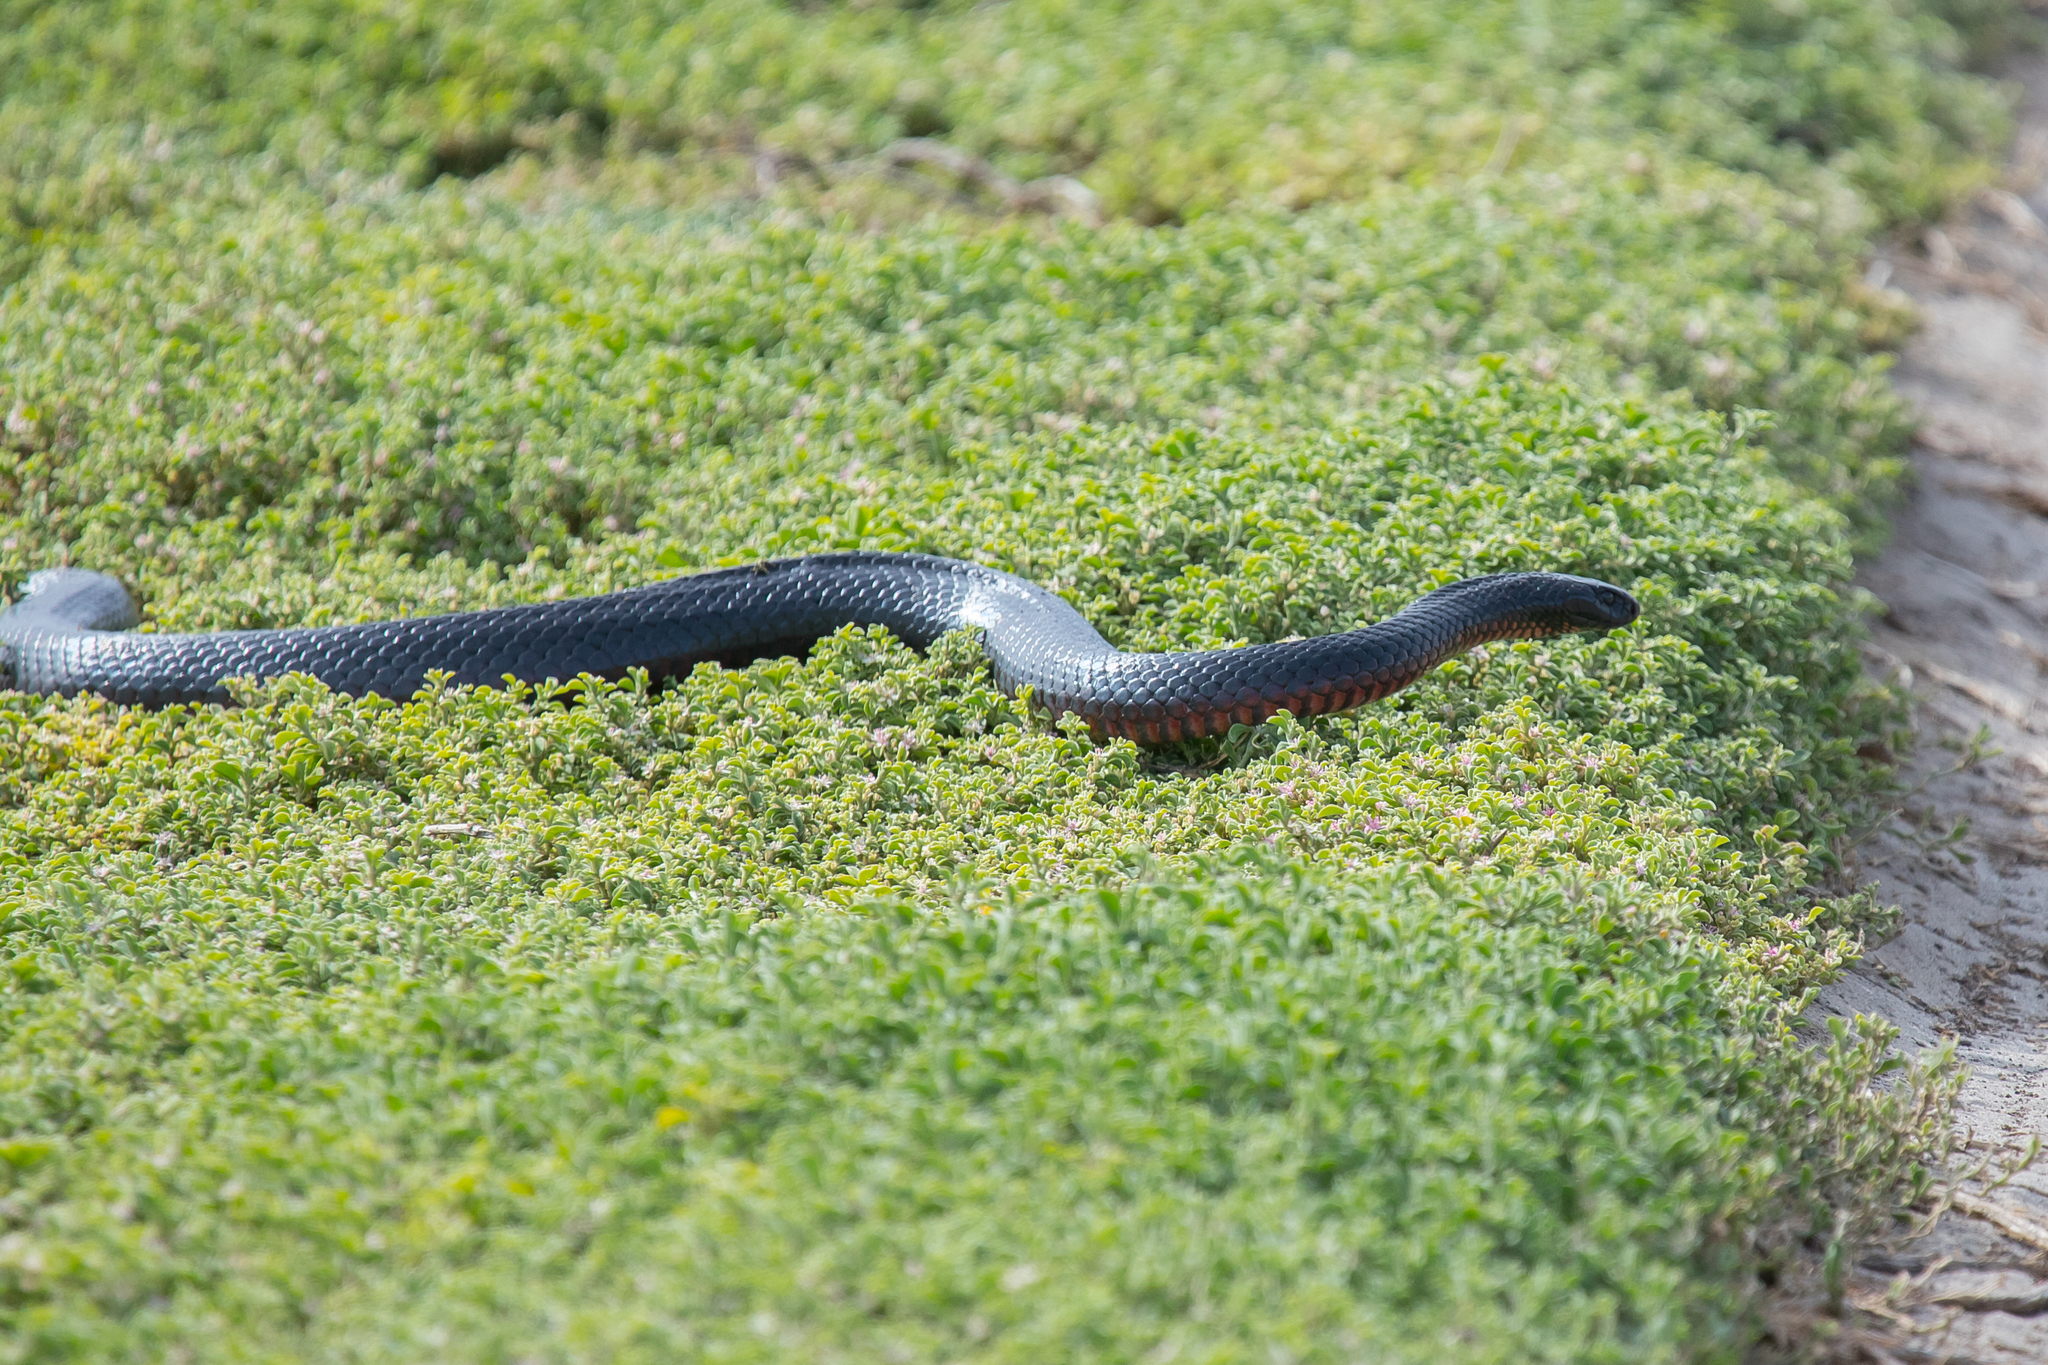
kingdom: Animalia
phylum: Chordata
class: Squamata
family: Elapidae
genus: Pseudechis
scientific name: Pseudechis porphyriacus
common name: Australian black snake
